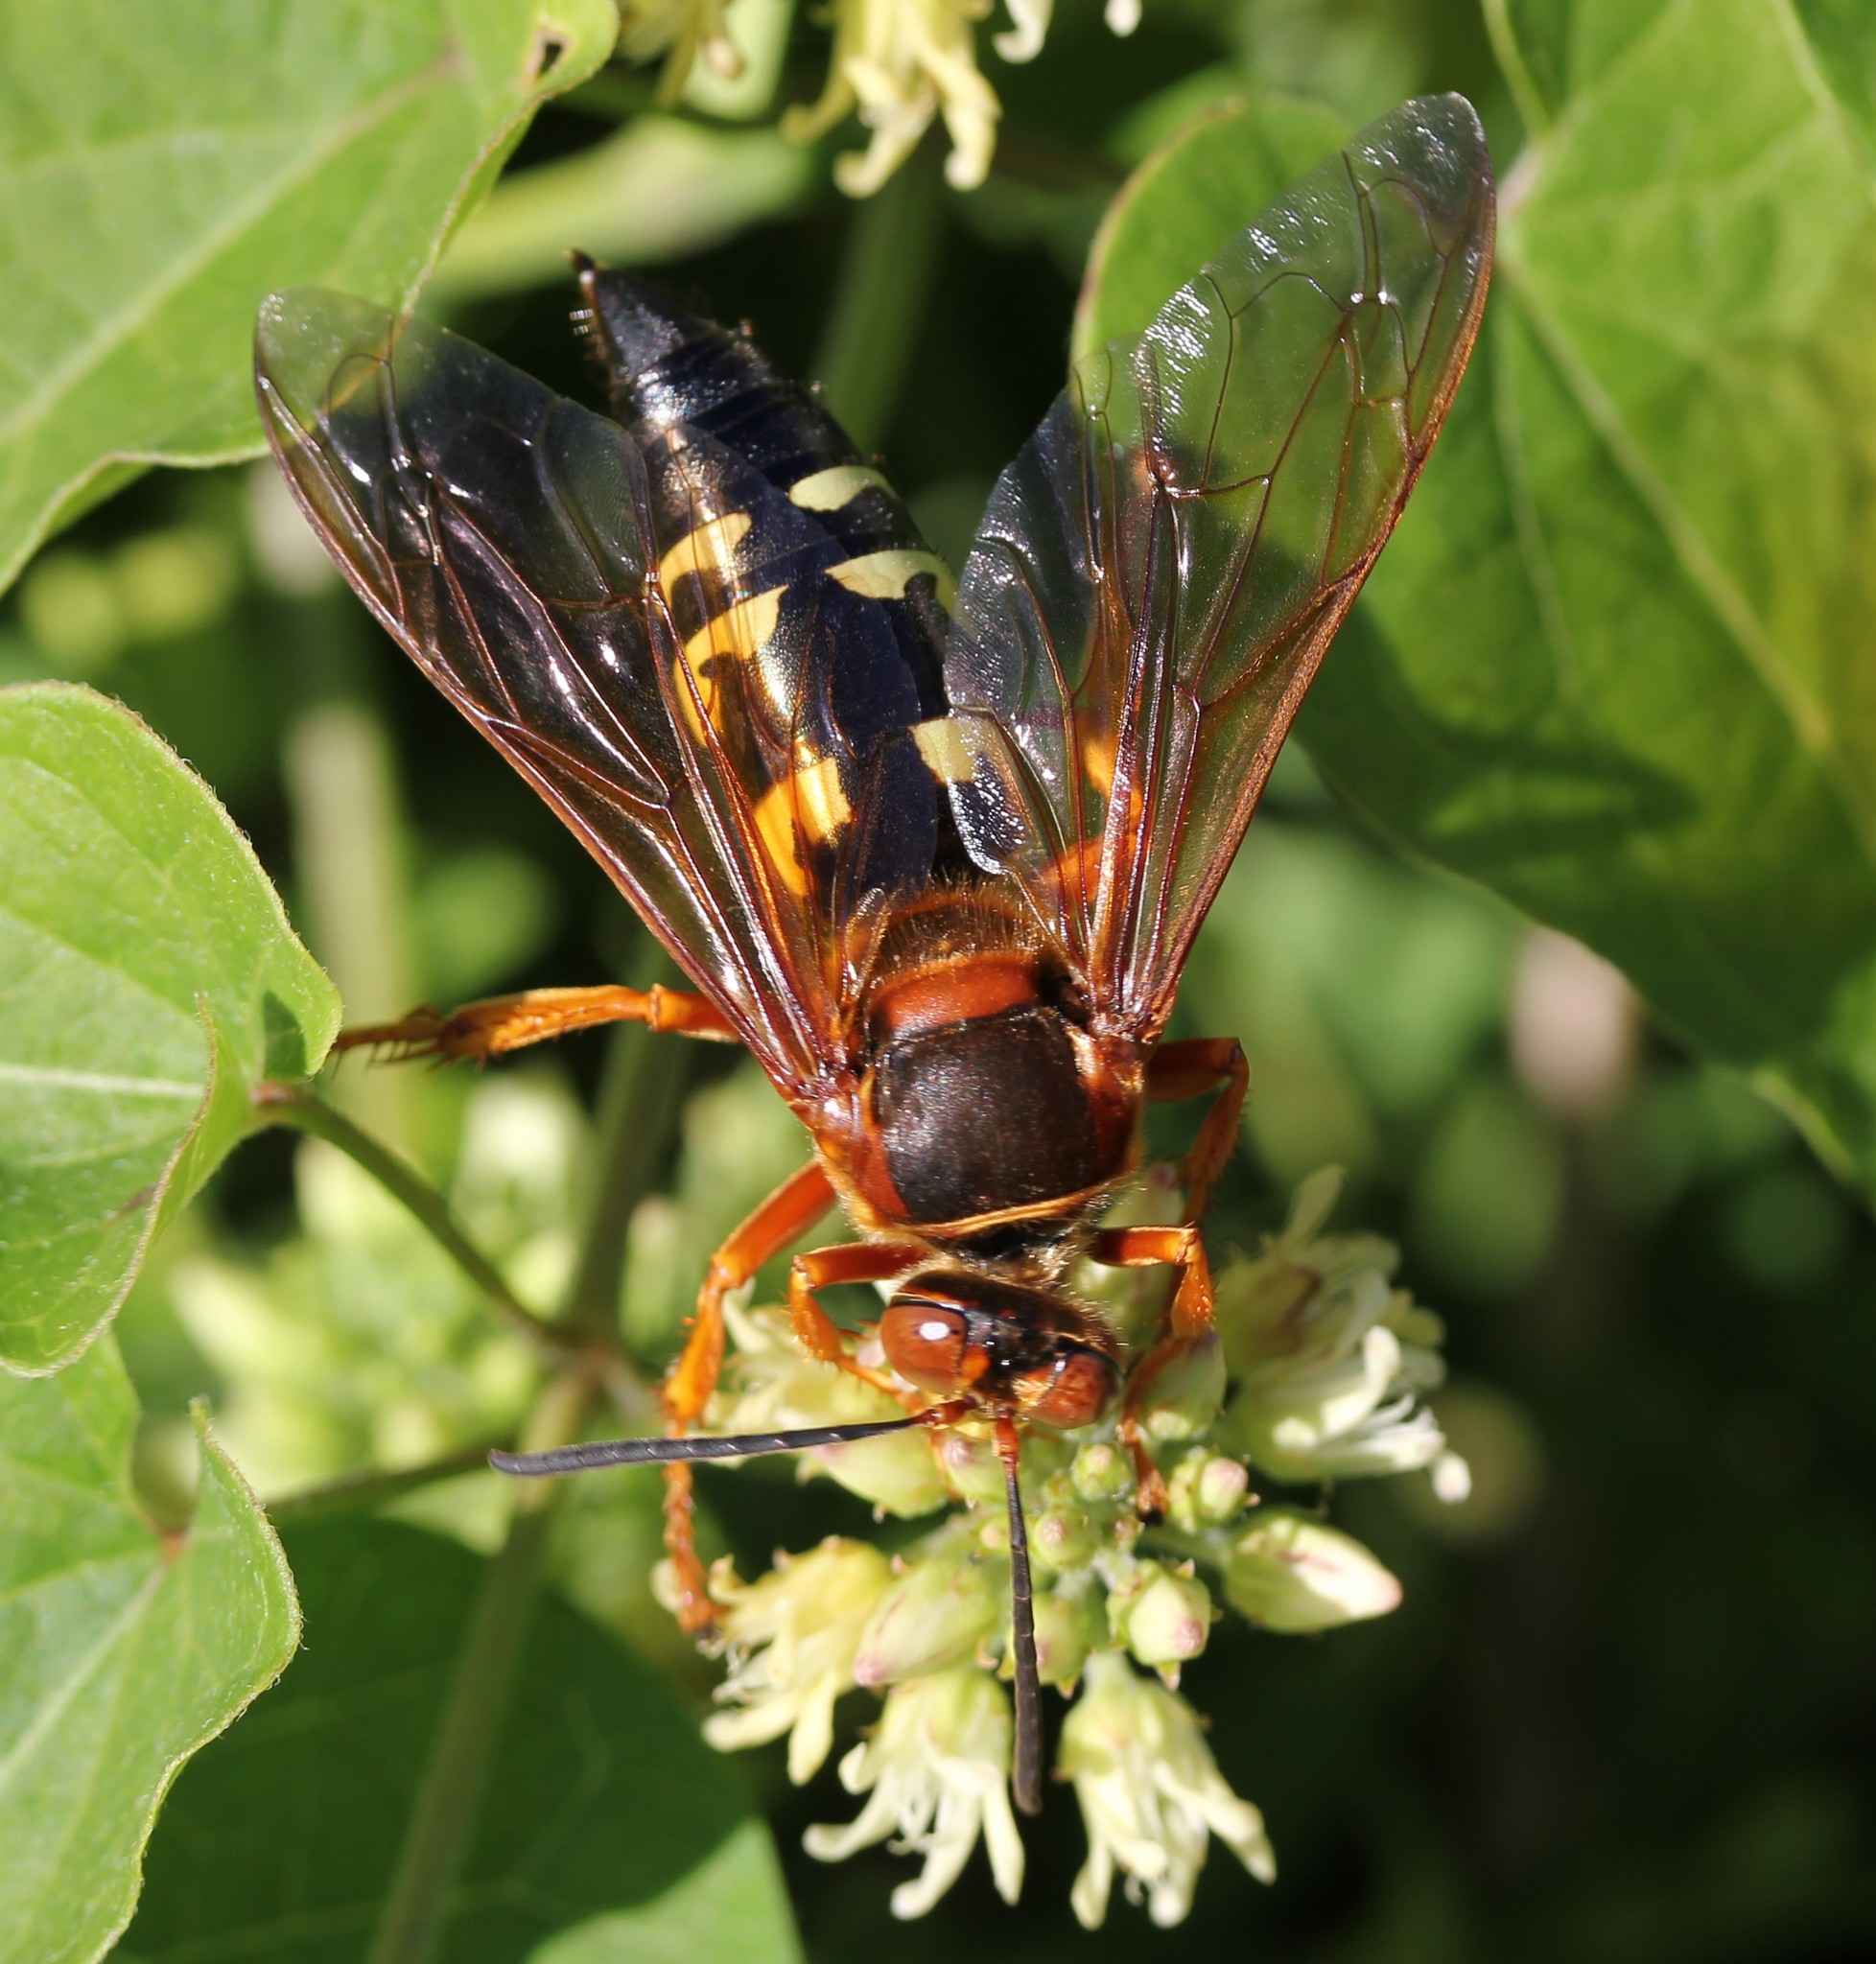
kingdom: Animalia
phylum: Arthropoda
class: Insecta
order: Hymenoptera
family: Crabronidae
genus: Sphecius
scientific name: Sphecius speciosus
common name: Cicada killer
